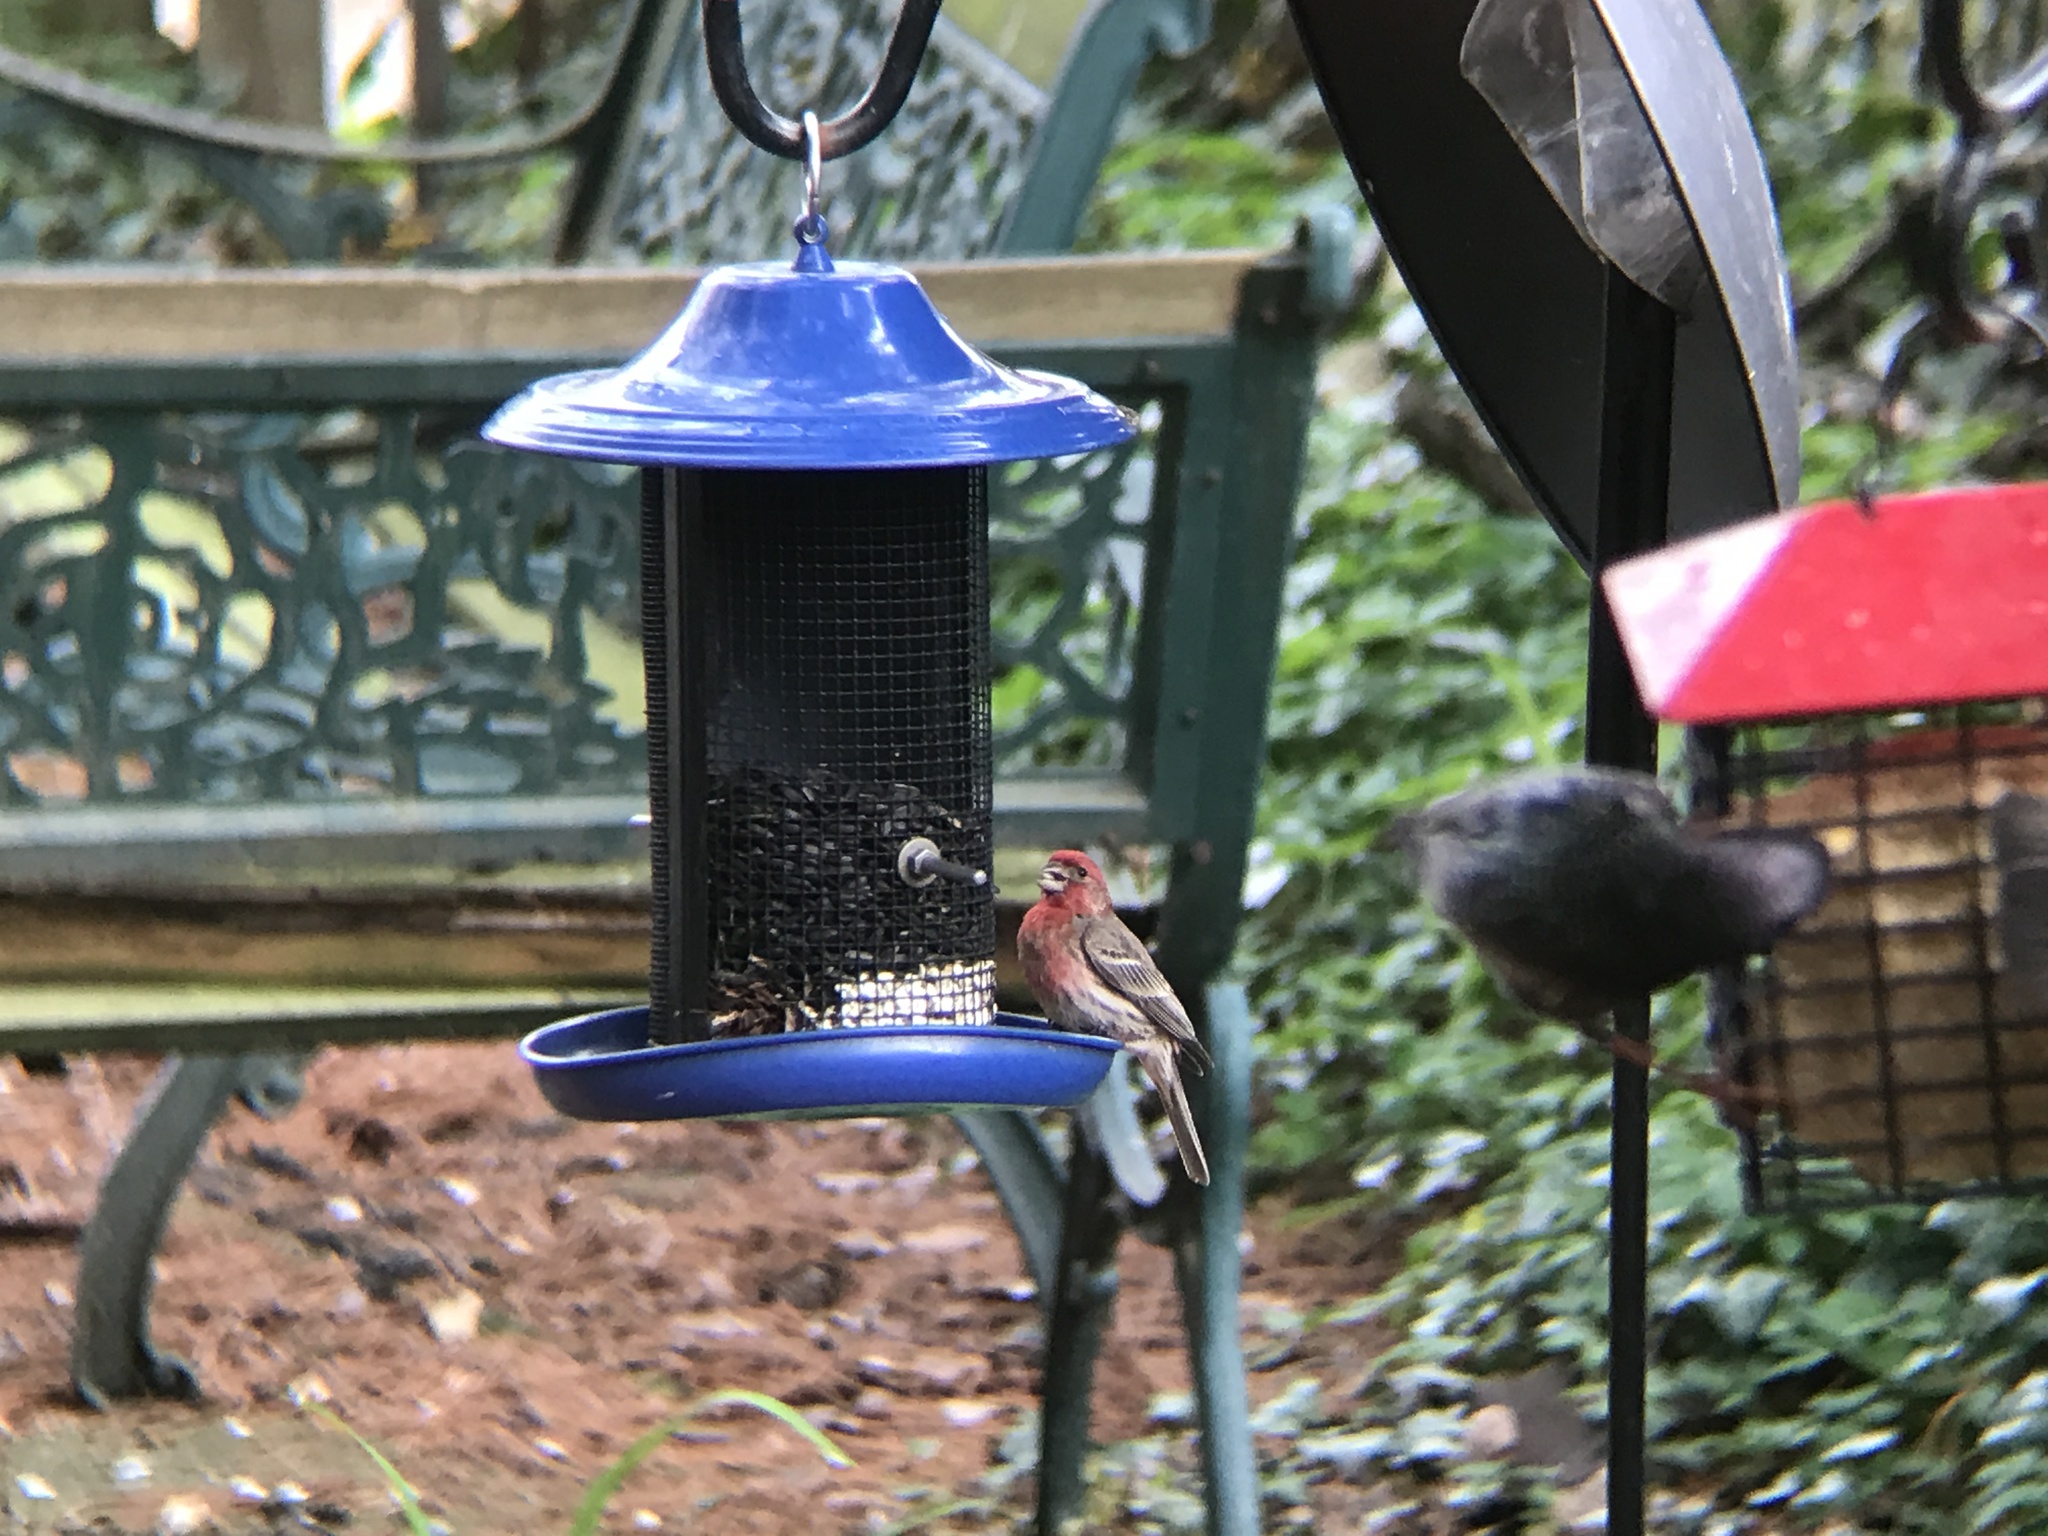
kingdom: Animalia
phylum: Chordata
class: Aves
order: Passeriformes
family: Fringillidae
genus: Haemorhous
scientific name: Haemorhous mexicanus
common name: House finch
